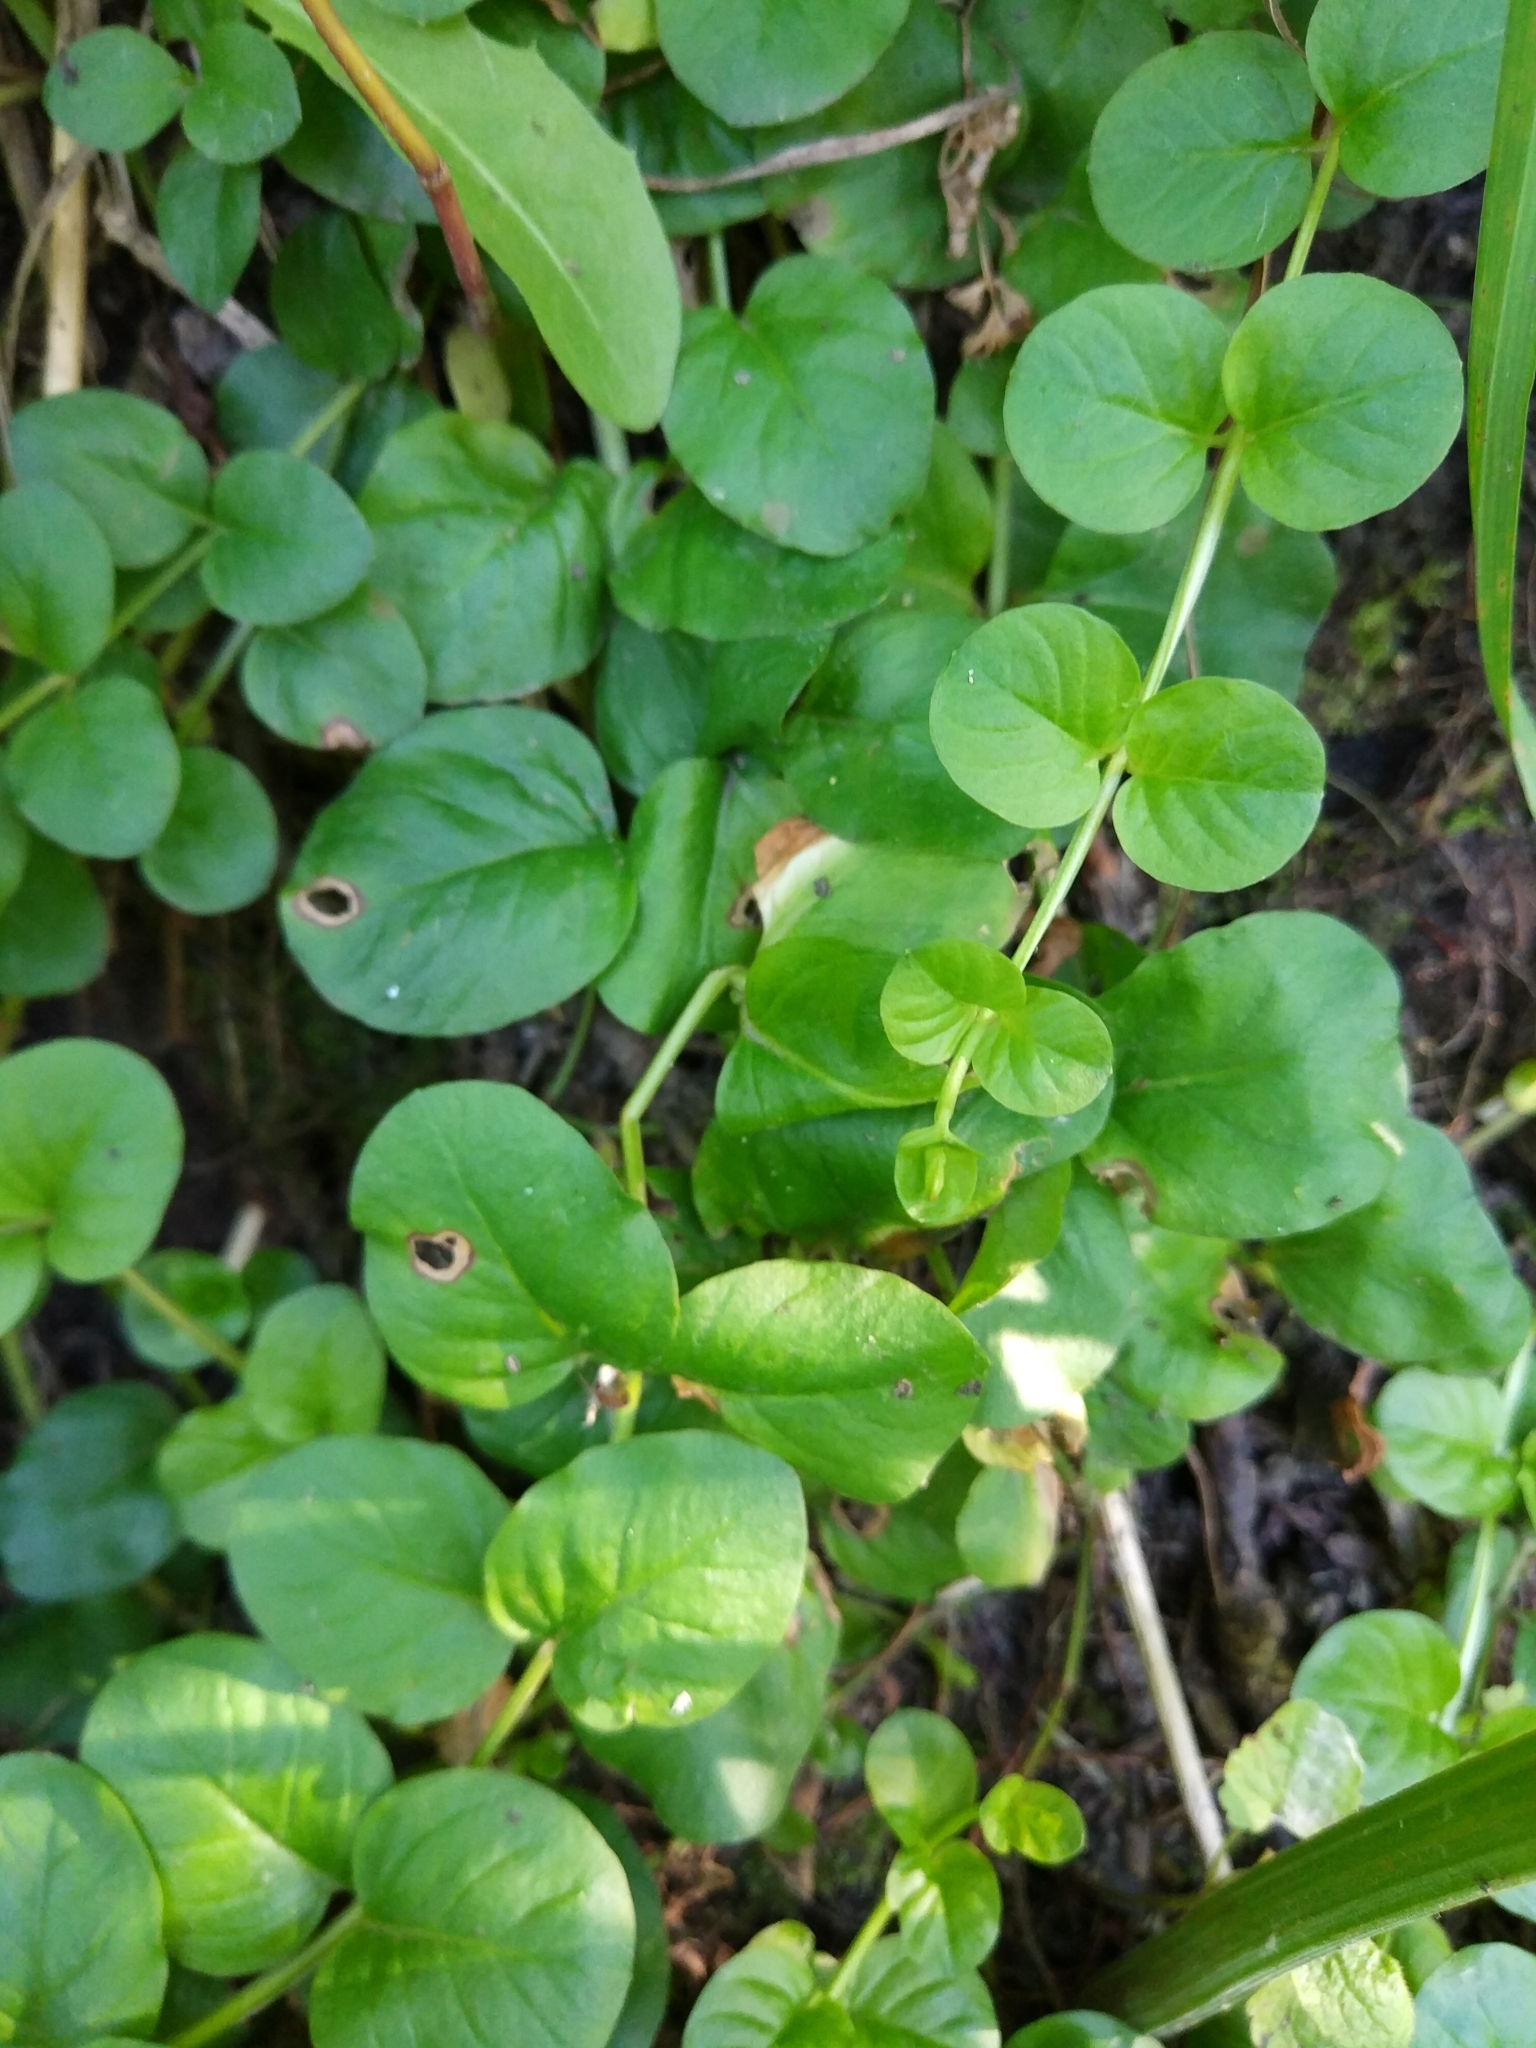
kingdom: Plantae
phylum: Tracheophyta
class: Magnoliopsida
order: Ericales
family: Primulaceae
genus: Lysimachia
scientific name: Lysimachia nummularia
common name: Moneywort
